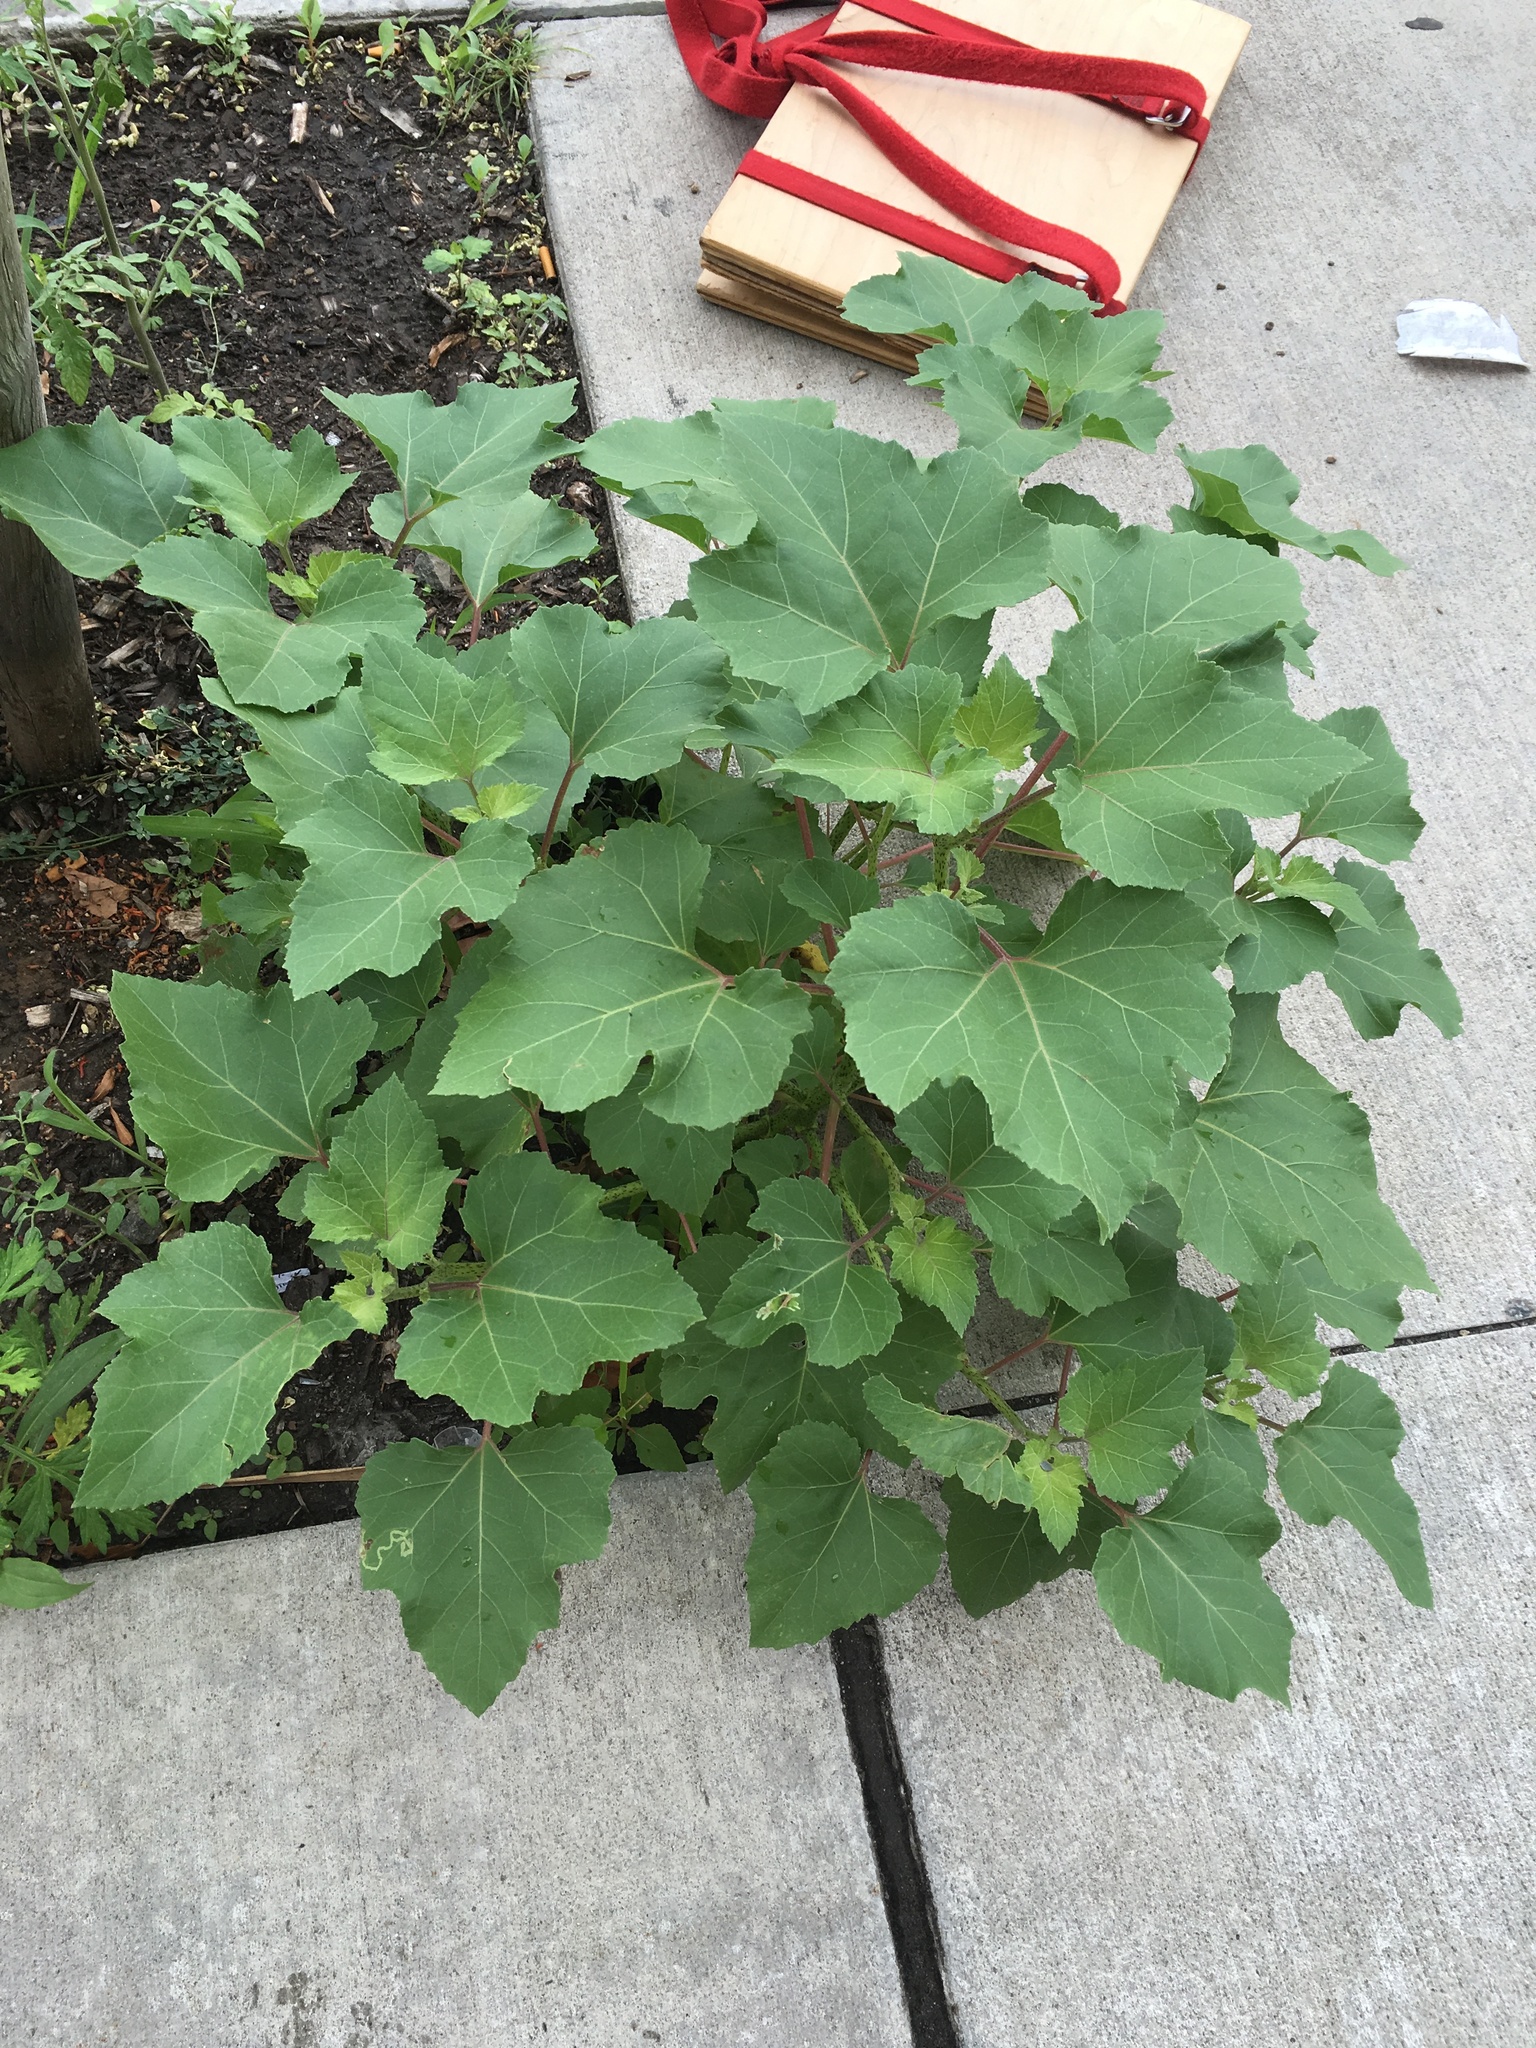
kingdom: Plantae
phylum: Tracheophyta
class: Magnoliopsida
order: Asterales
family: Asteraceae
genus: Xanthium
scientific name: Xanthium strumarium
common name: Rough cocklebur
